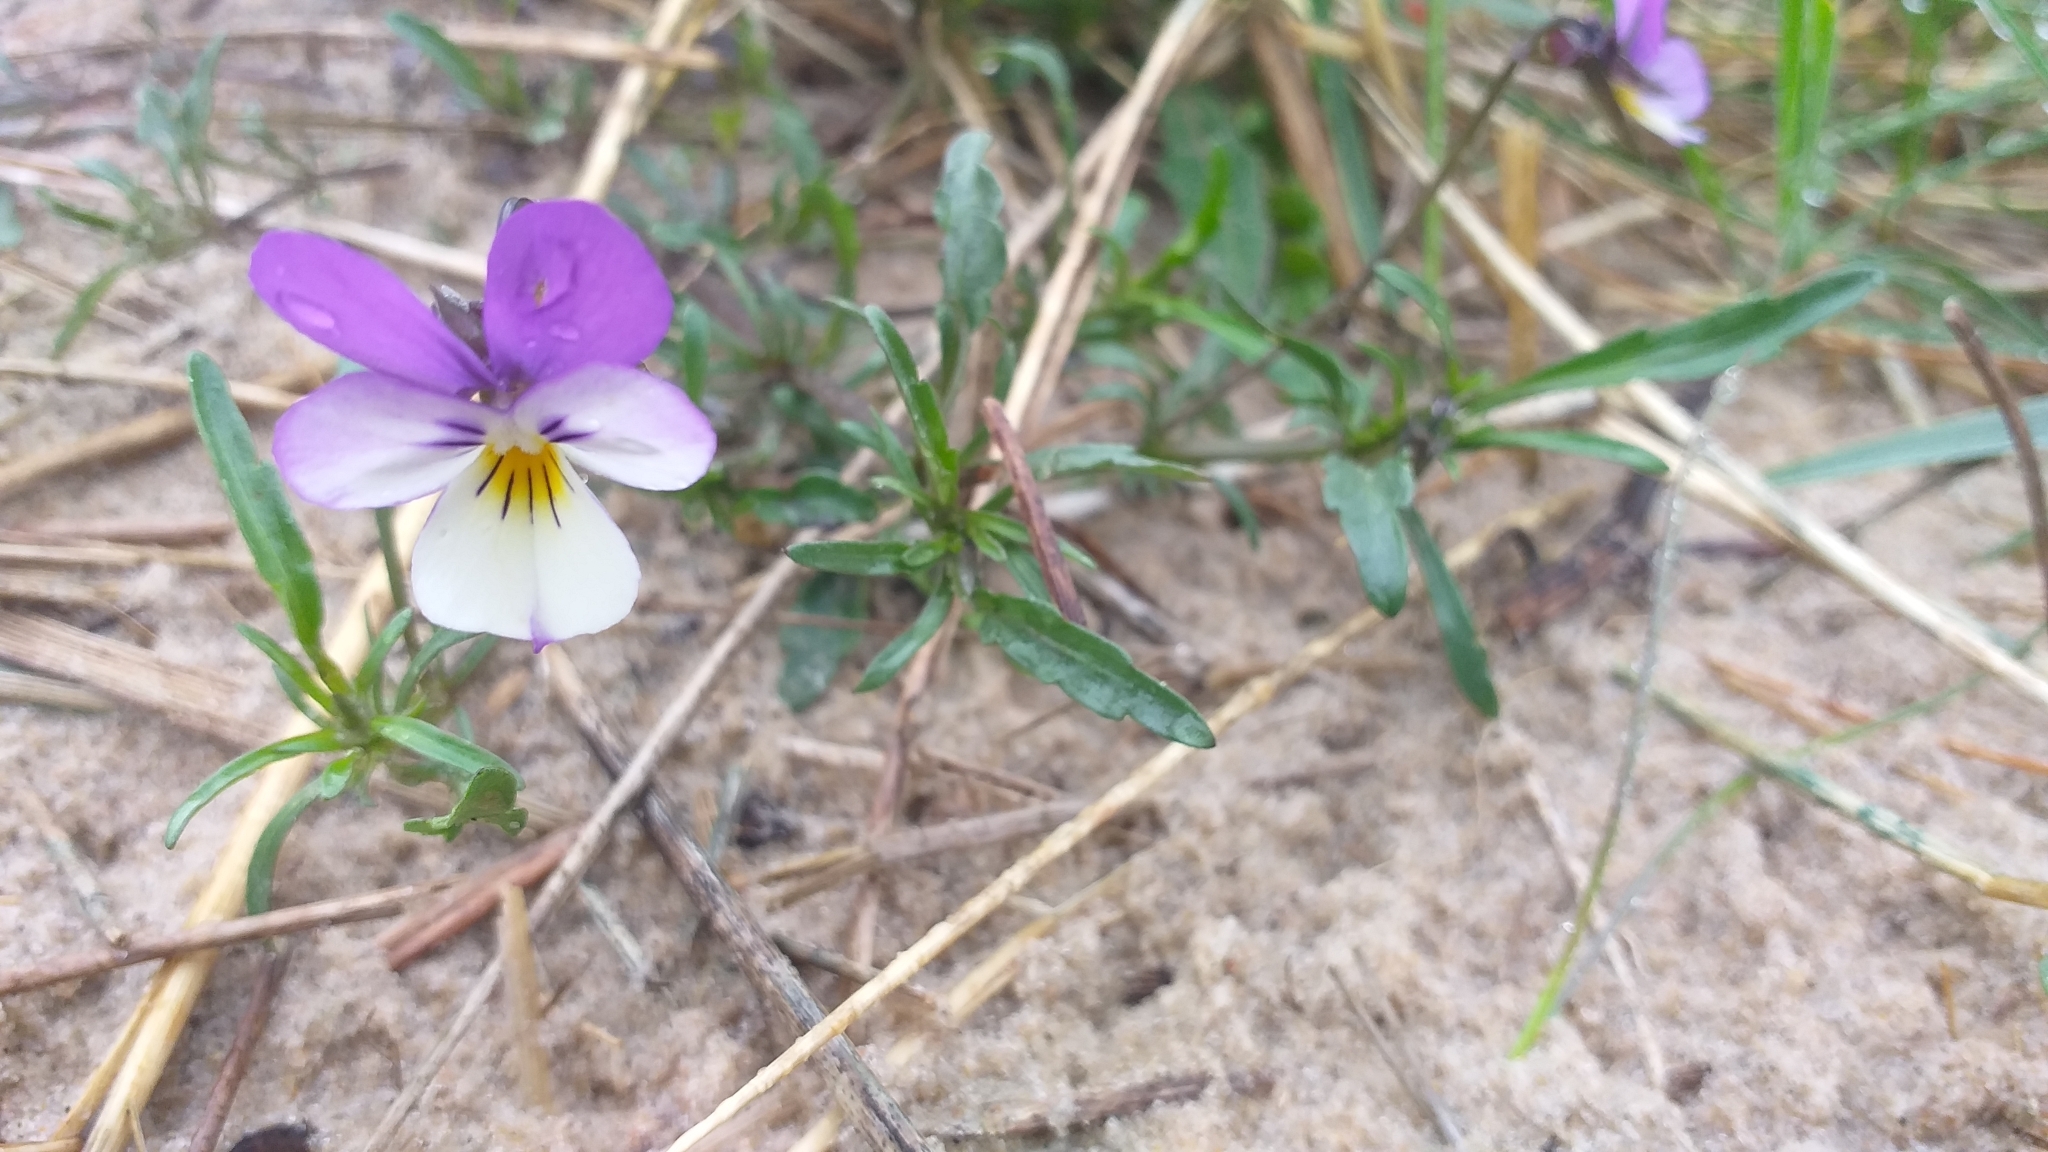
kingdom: Plantae
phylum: Tracheophyta
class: Magnoliopsida
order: Malpighiales
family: Violaceae
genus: Viola
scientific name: Viola tricolor
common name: Pansy
